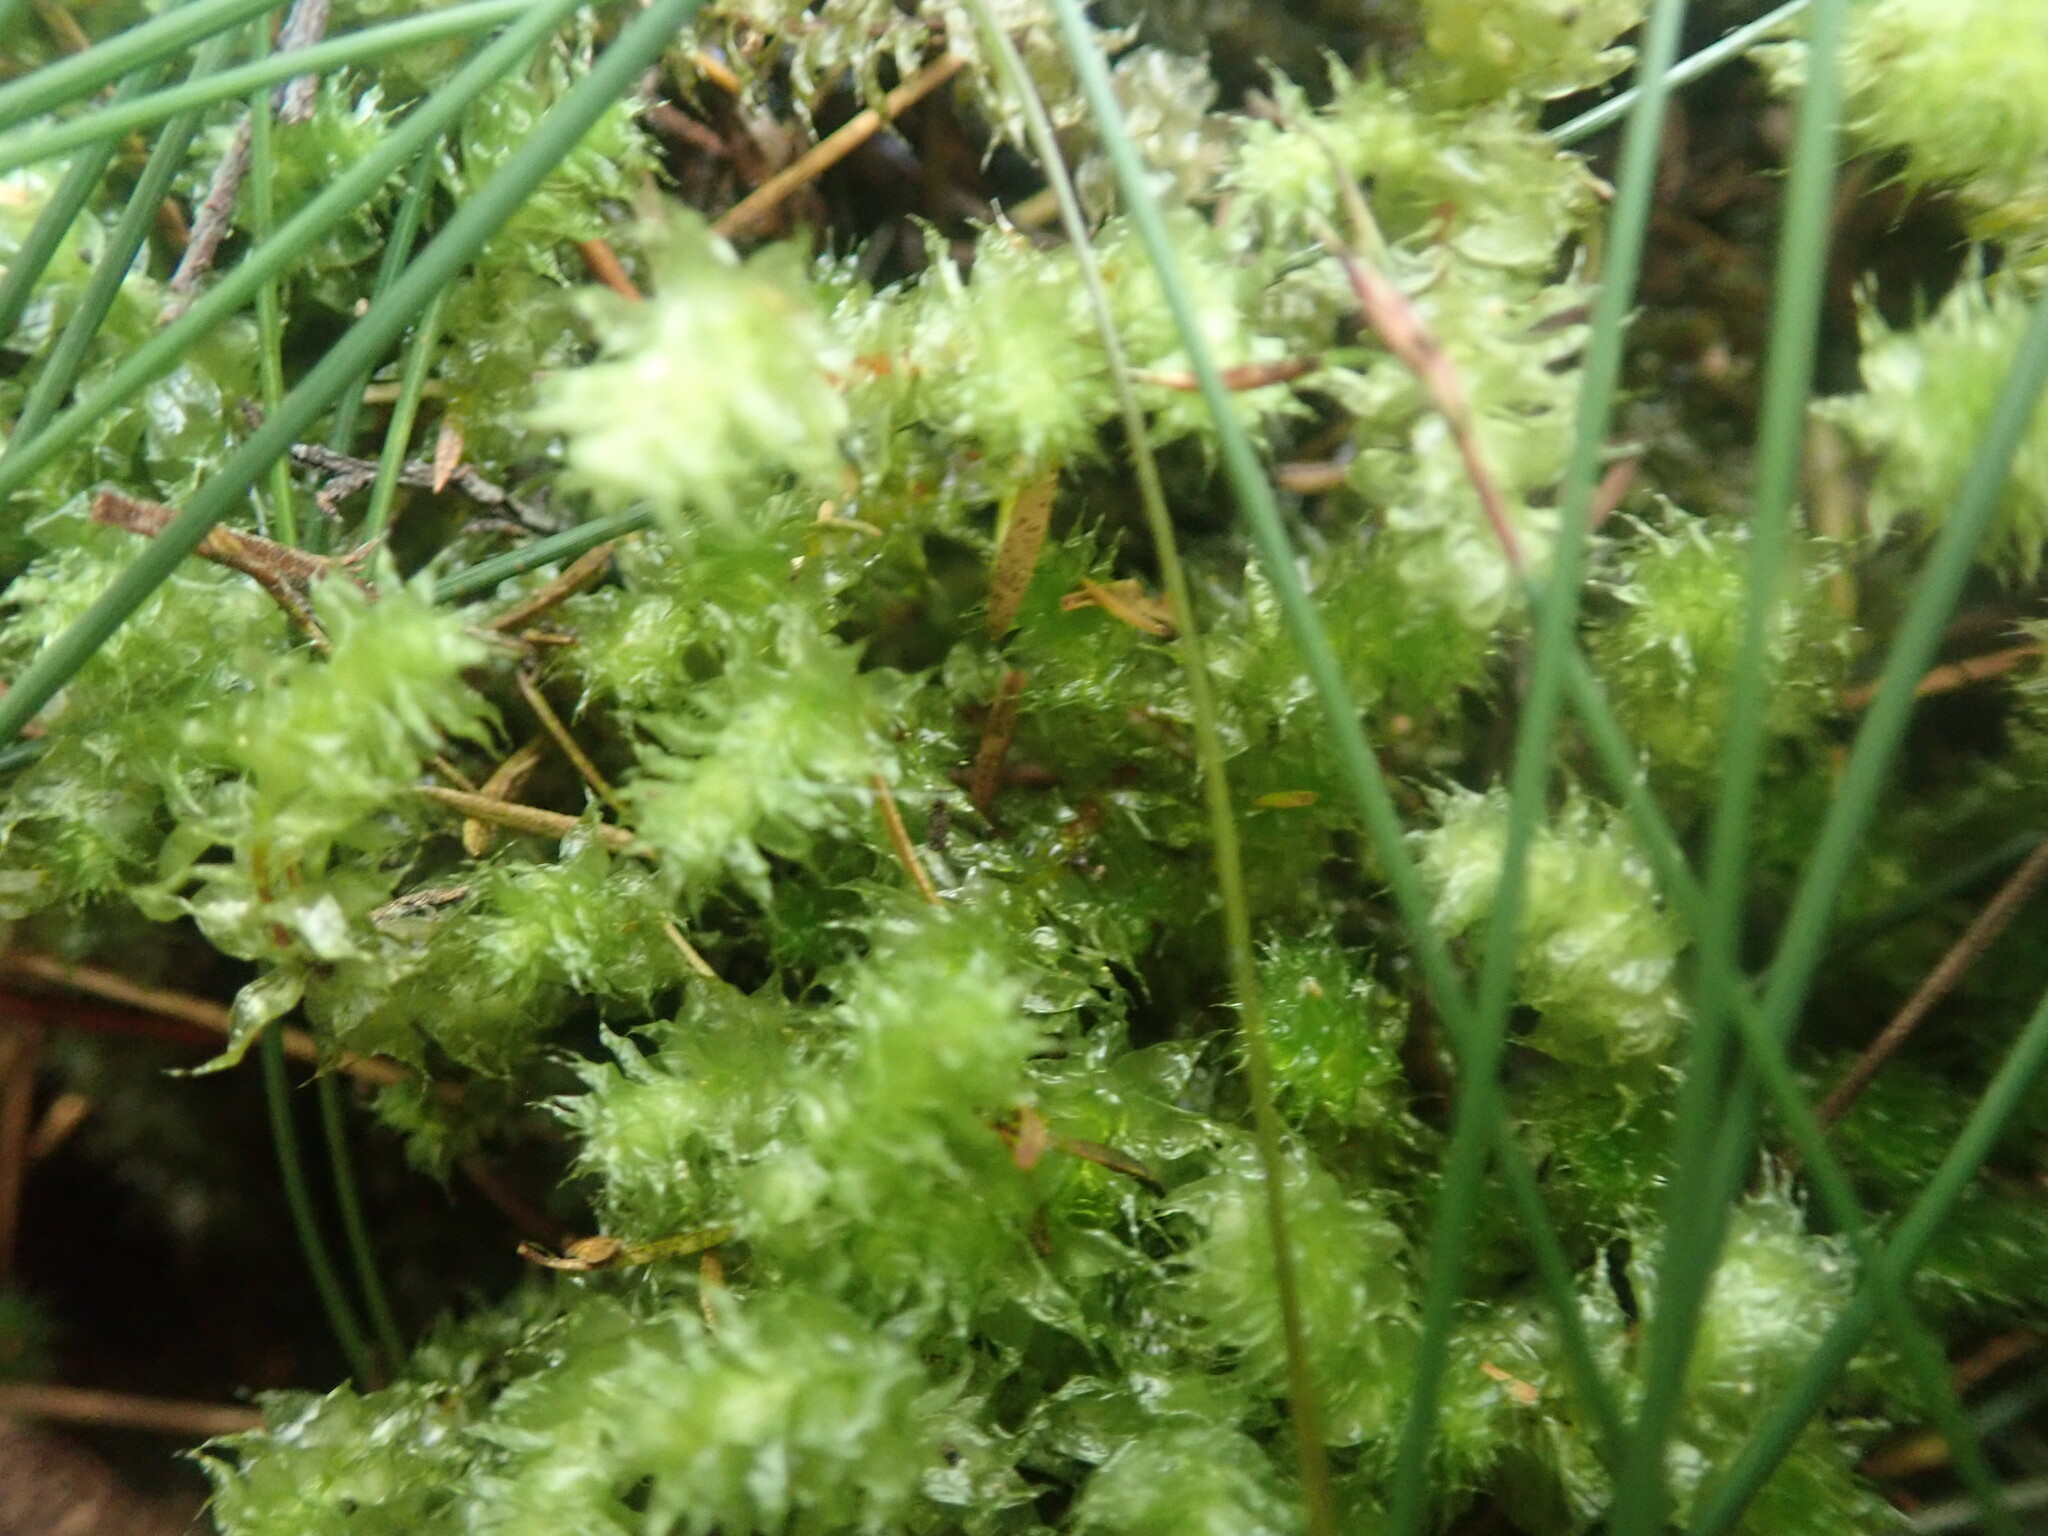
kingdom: Plantae
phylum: Bryophyta
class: Bryopsida
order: Ptychomniales
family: Ptychomniaceae
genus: Ptychomnion
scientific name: Ptychomnion aciculare
